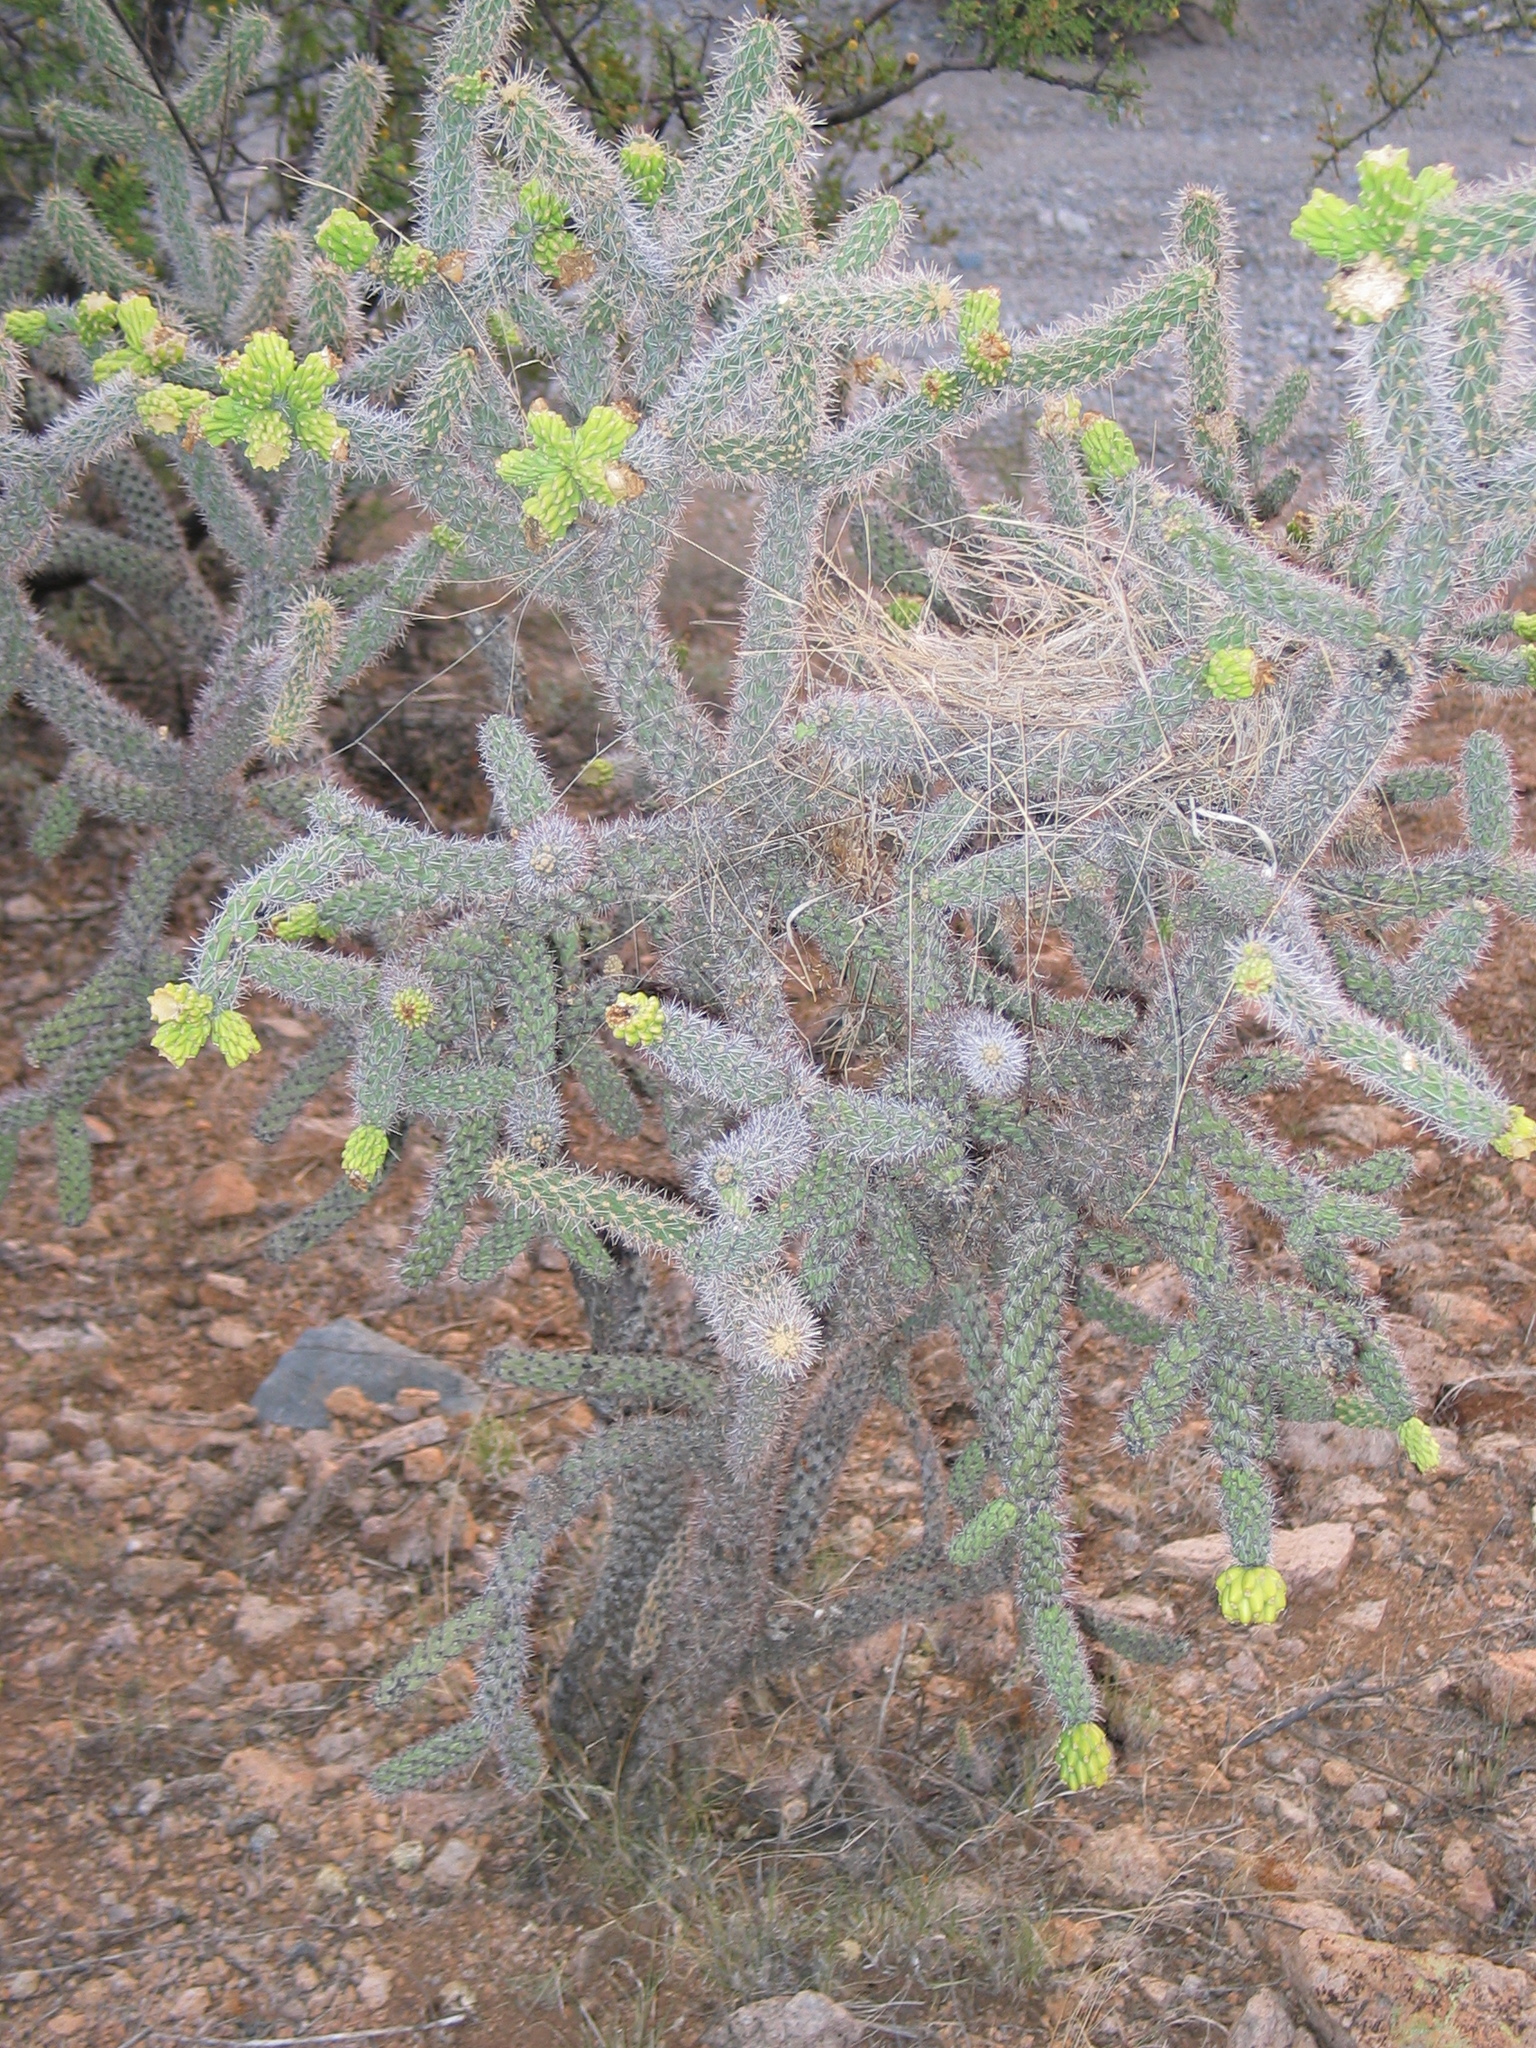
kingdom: Plantae
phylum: Tracheophyta
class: Magnoliopsida
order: Caryophyllales
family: Cactaceae
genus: Cylindropuntia
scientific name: Cylindropuntia imbricata
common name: Candelabrum cactus
